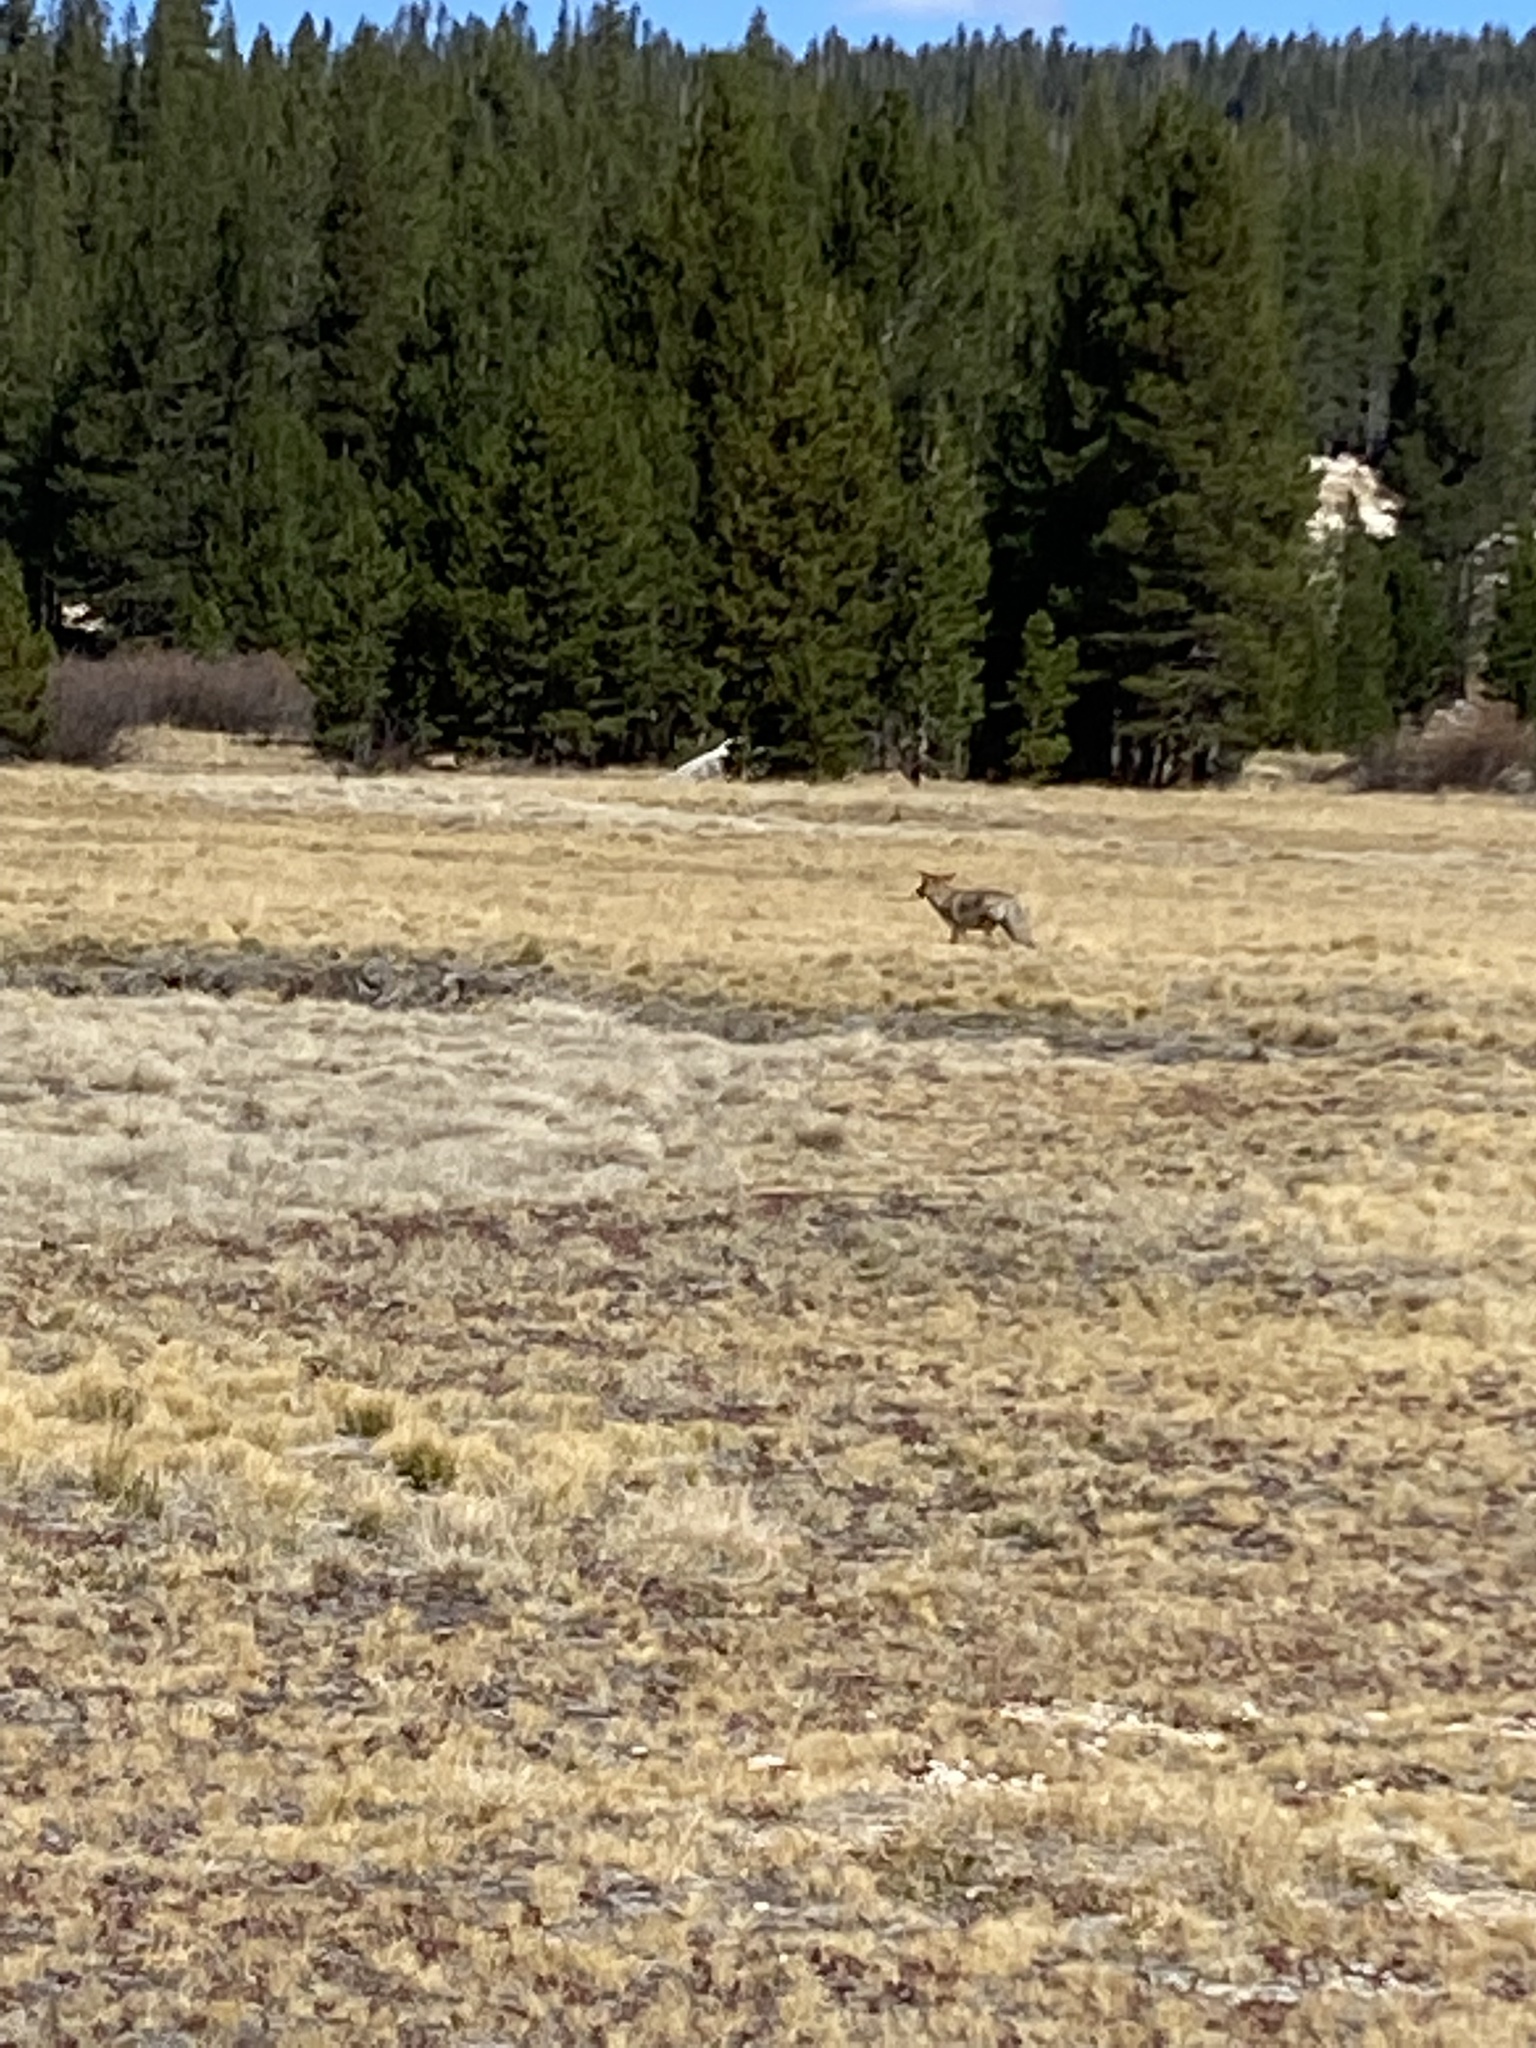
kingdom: Animalia
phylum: Chordata
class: Mammalia
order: Carnivora
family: Canidae
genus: Canis
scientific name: Canis latrans
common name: Coyote
